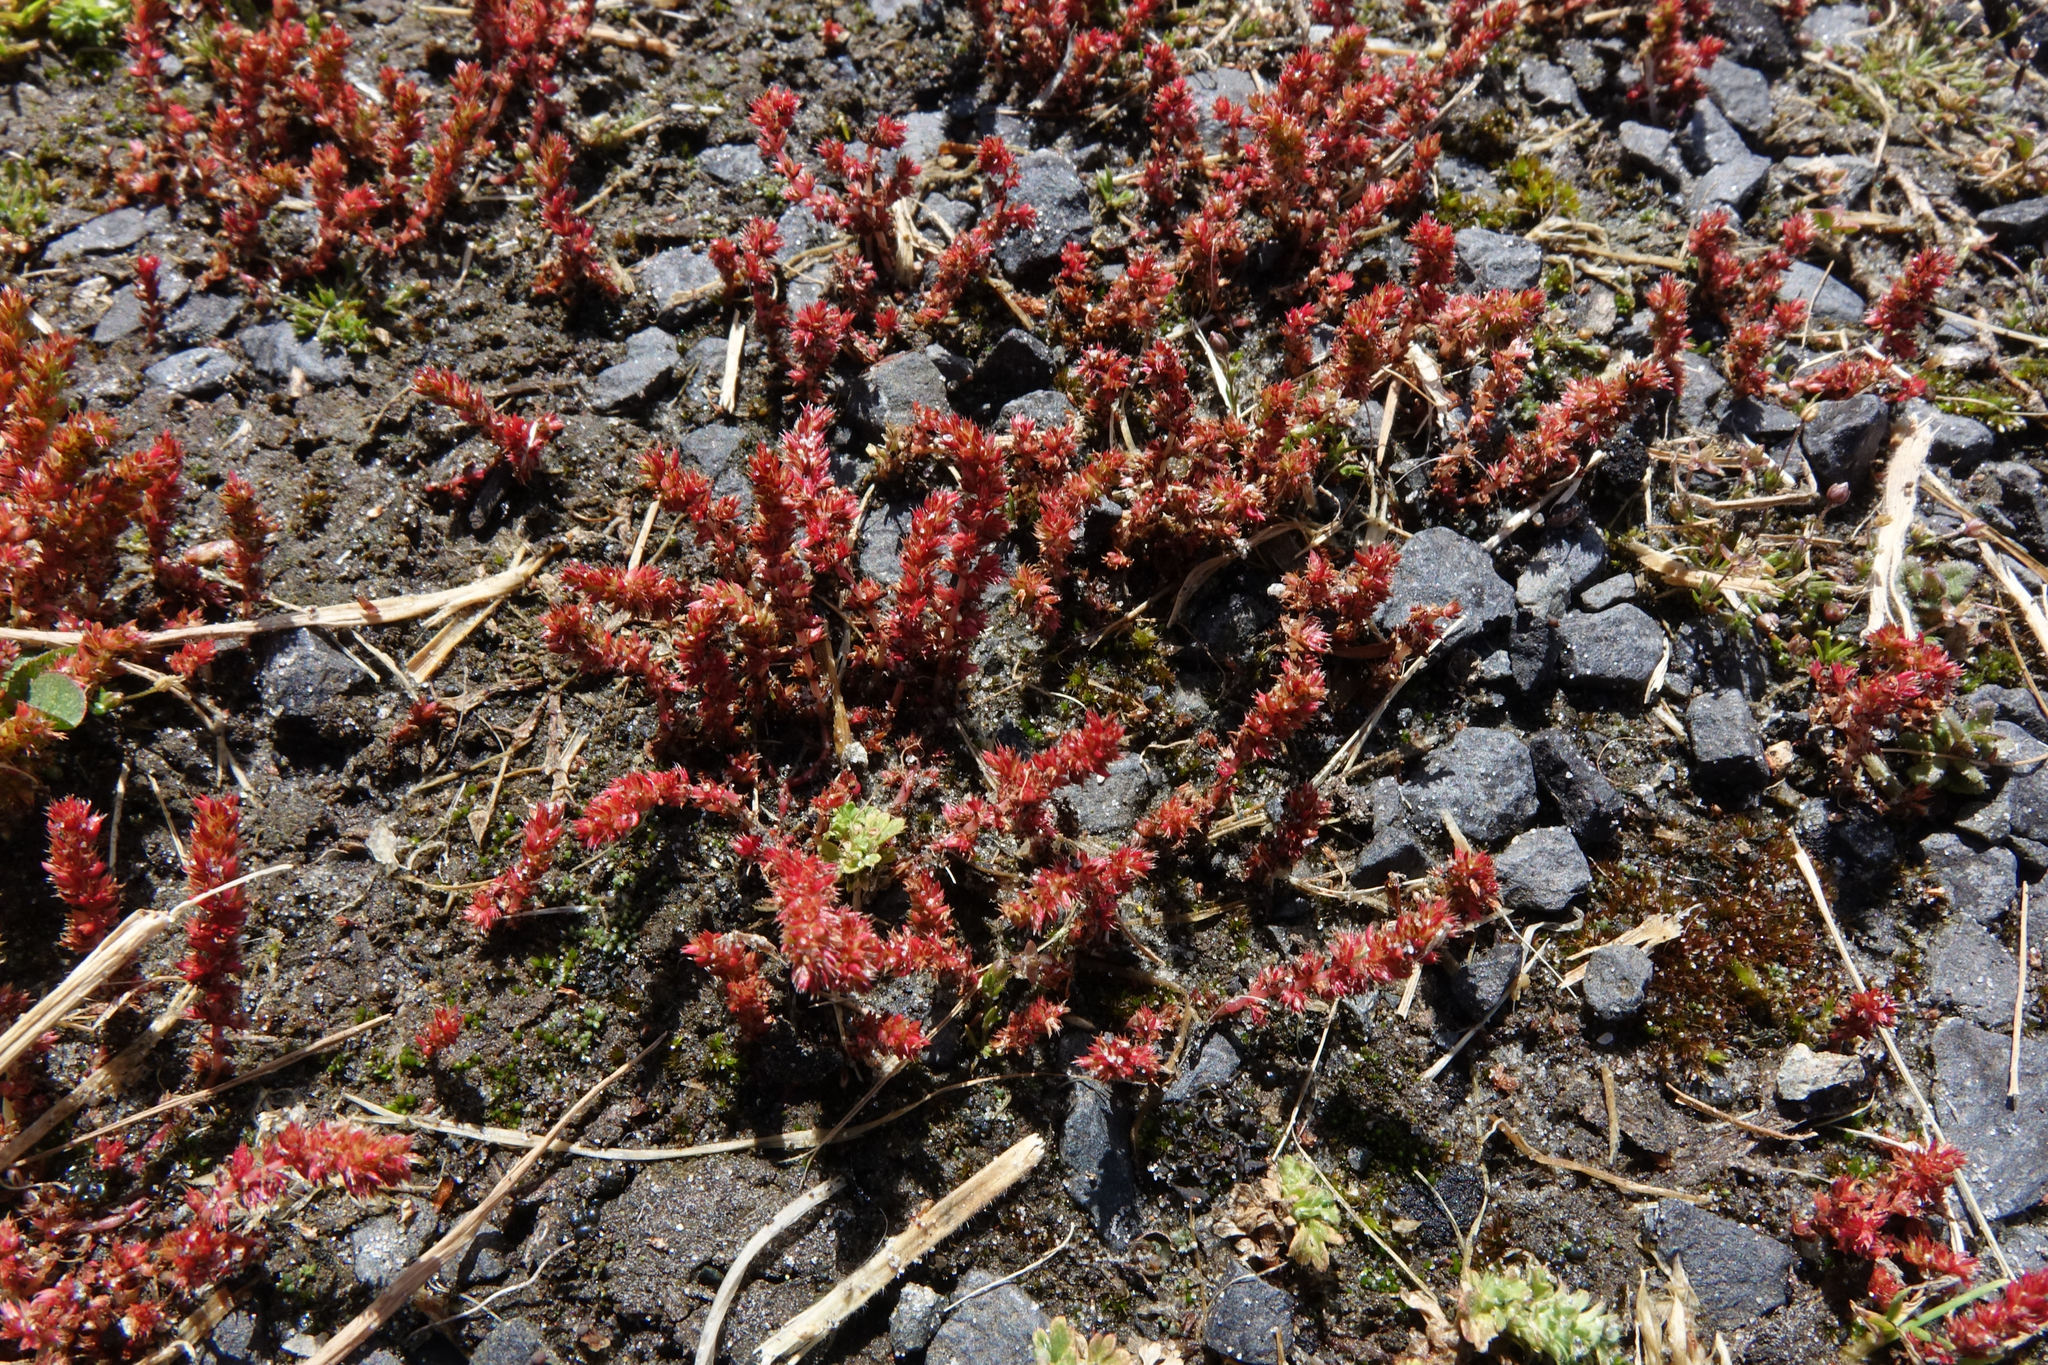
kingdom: Plantae
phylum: Tracheophyta
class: Magnoliopsida
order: Saxifragales
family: Crassulaceae
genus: Crassula
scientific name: Crassula alata
